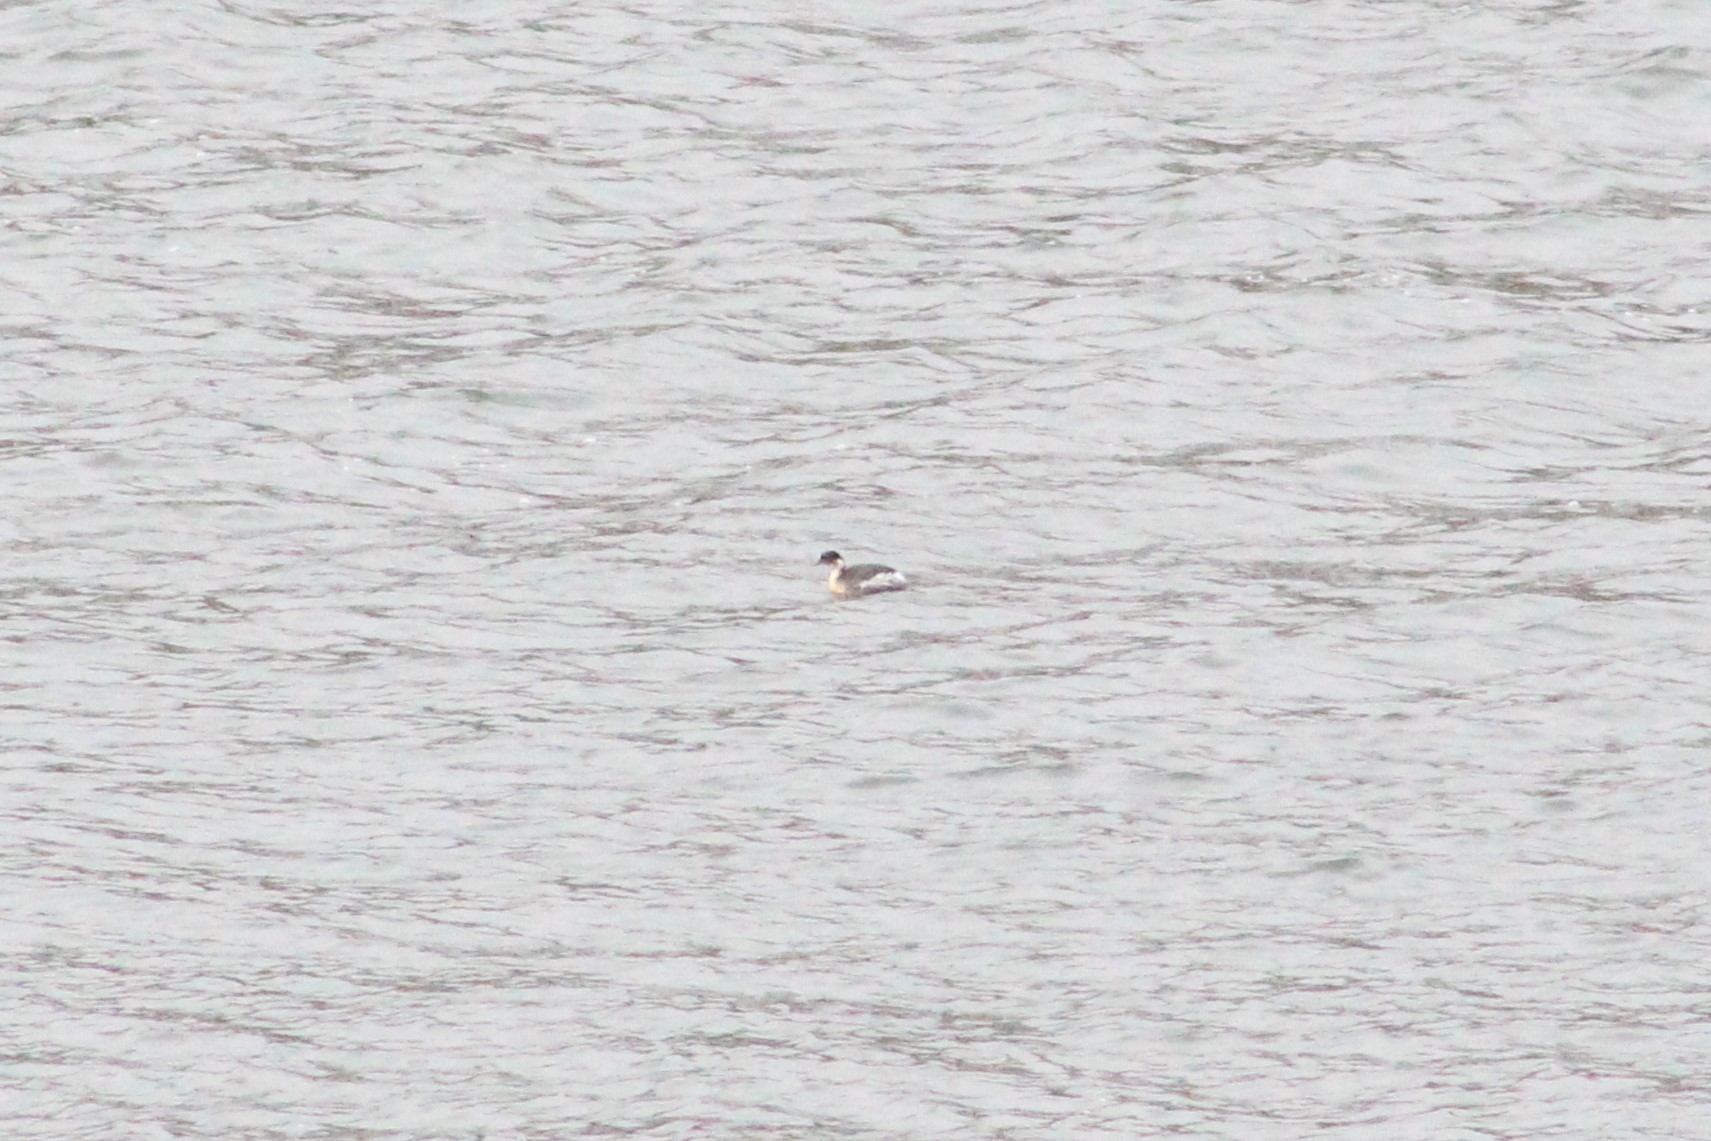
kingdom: Animalia
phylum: Chordata
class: Aves
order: Podicipediformes
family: Podicipedidae
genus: Podiceps
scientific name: Podiceps occipitalis
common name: Silvery grebe
